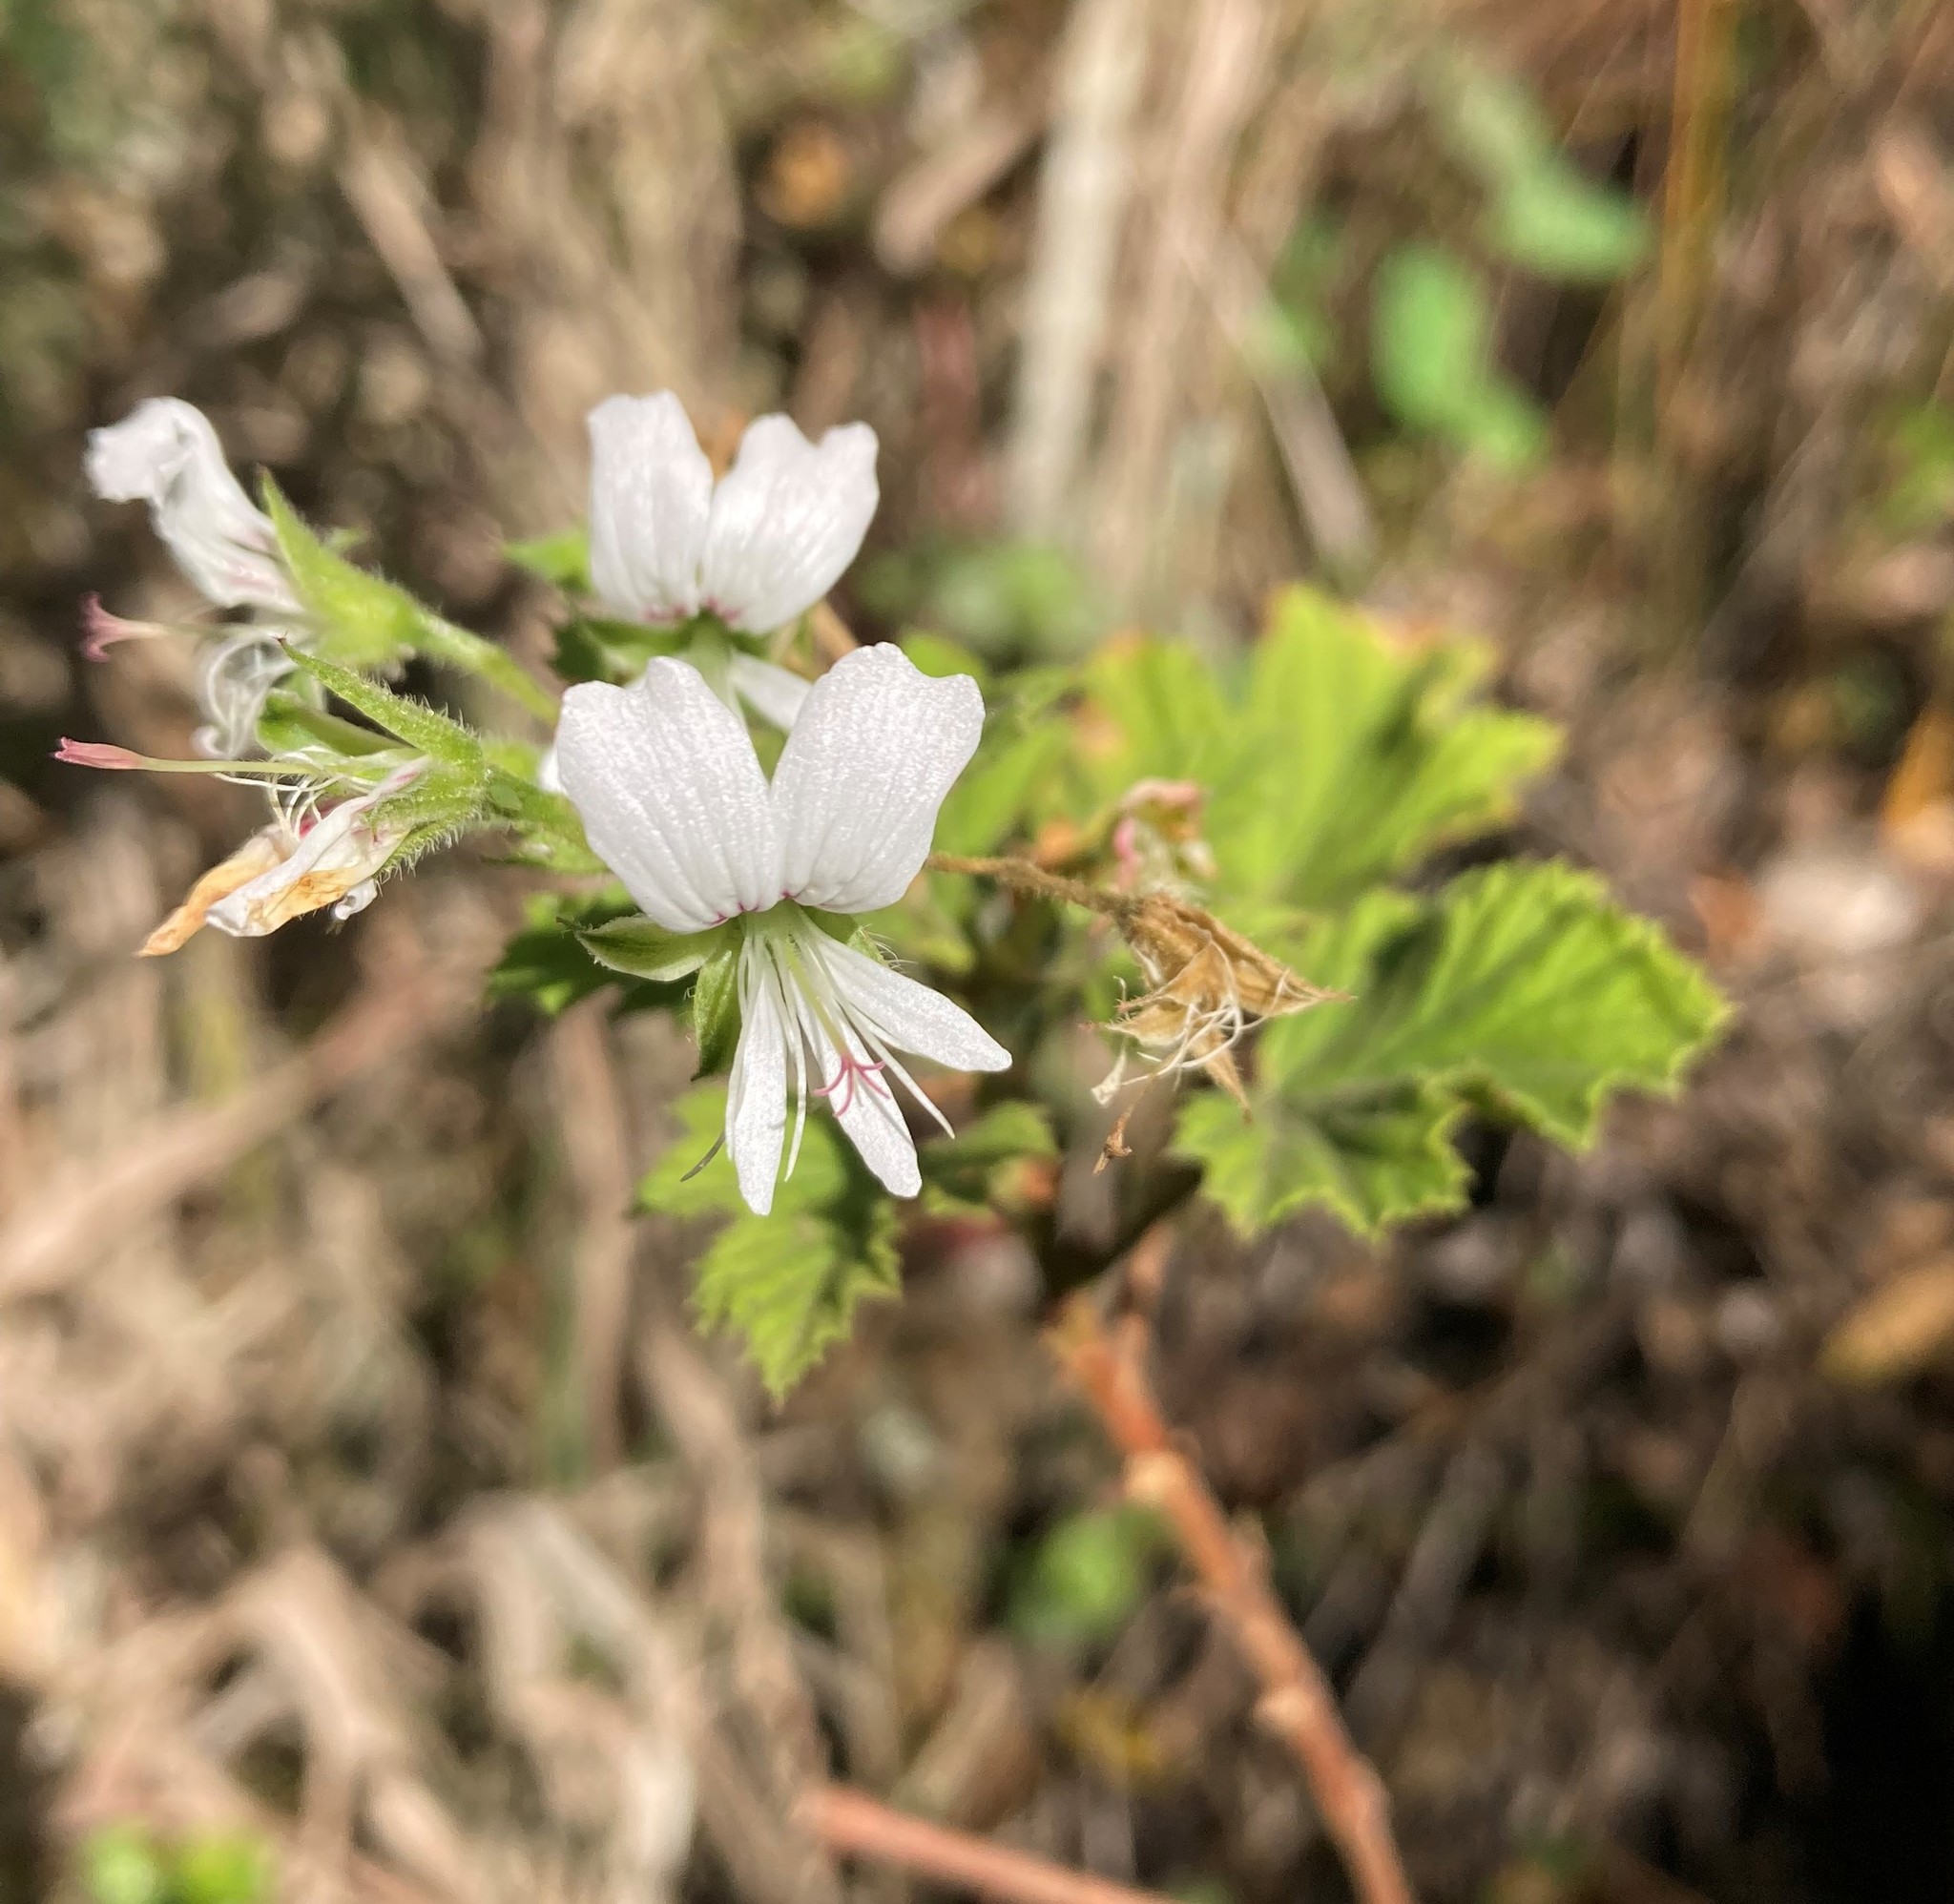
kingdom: Plantae
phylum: Tracheophyta
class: Magnoliopsida
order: Geraniales
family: Geraniaceae
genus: Pelargonium
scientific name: Pelargonium ribifolium
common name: Currant-leaf pelargonium
